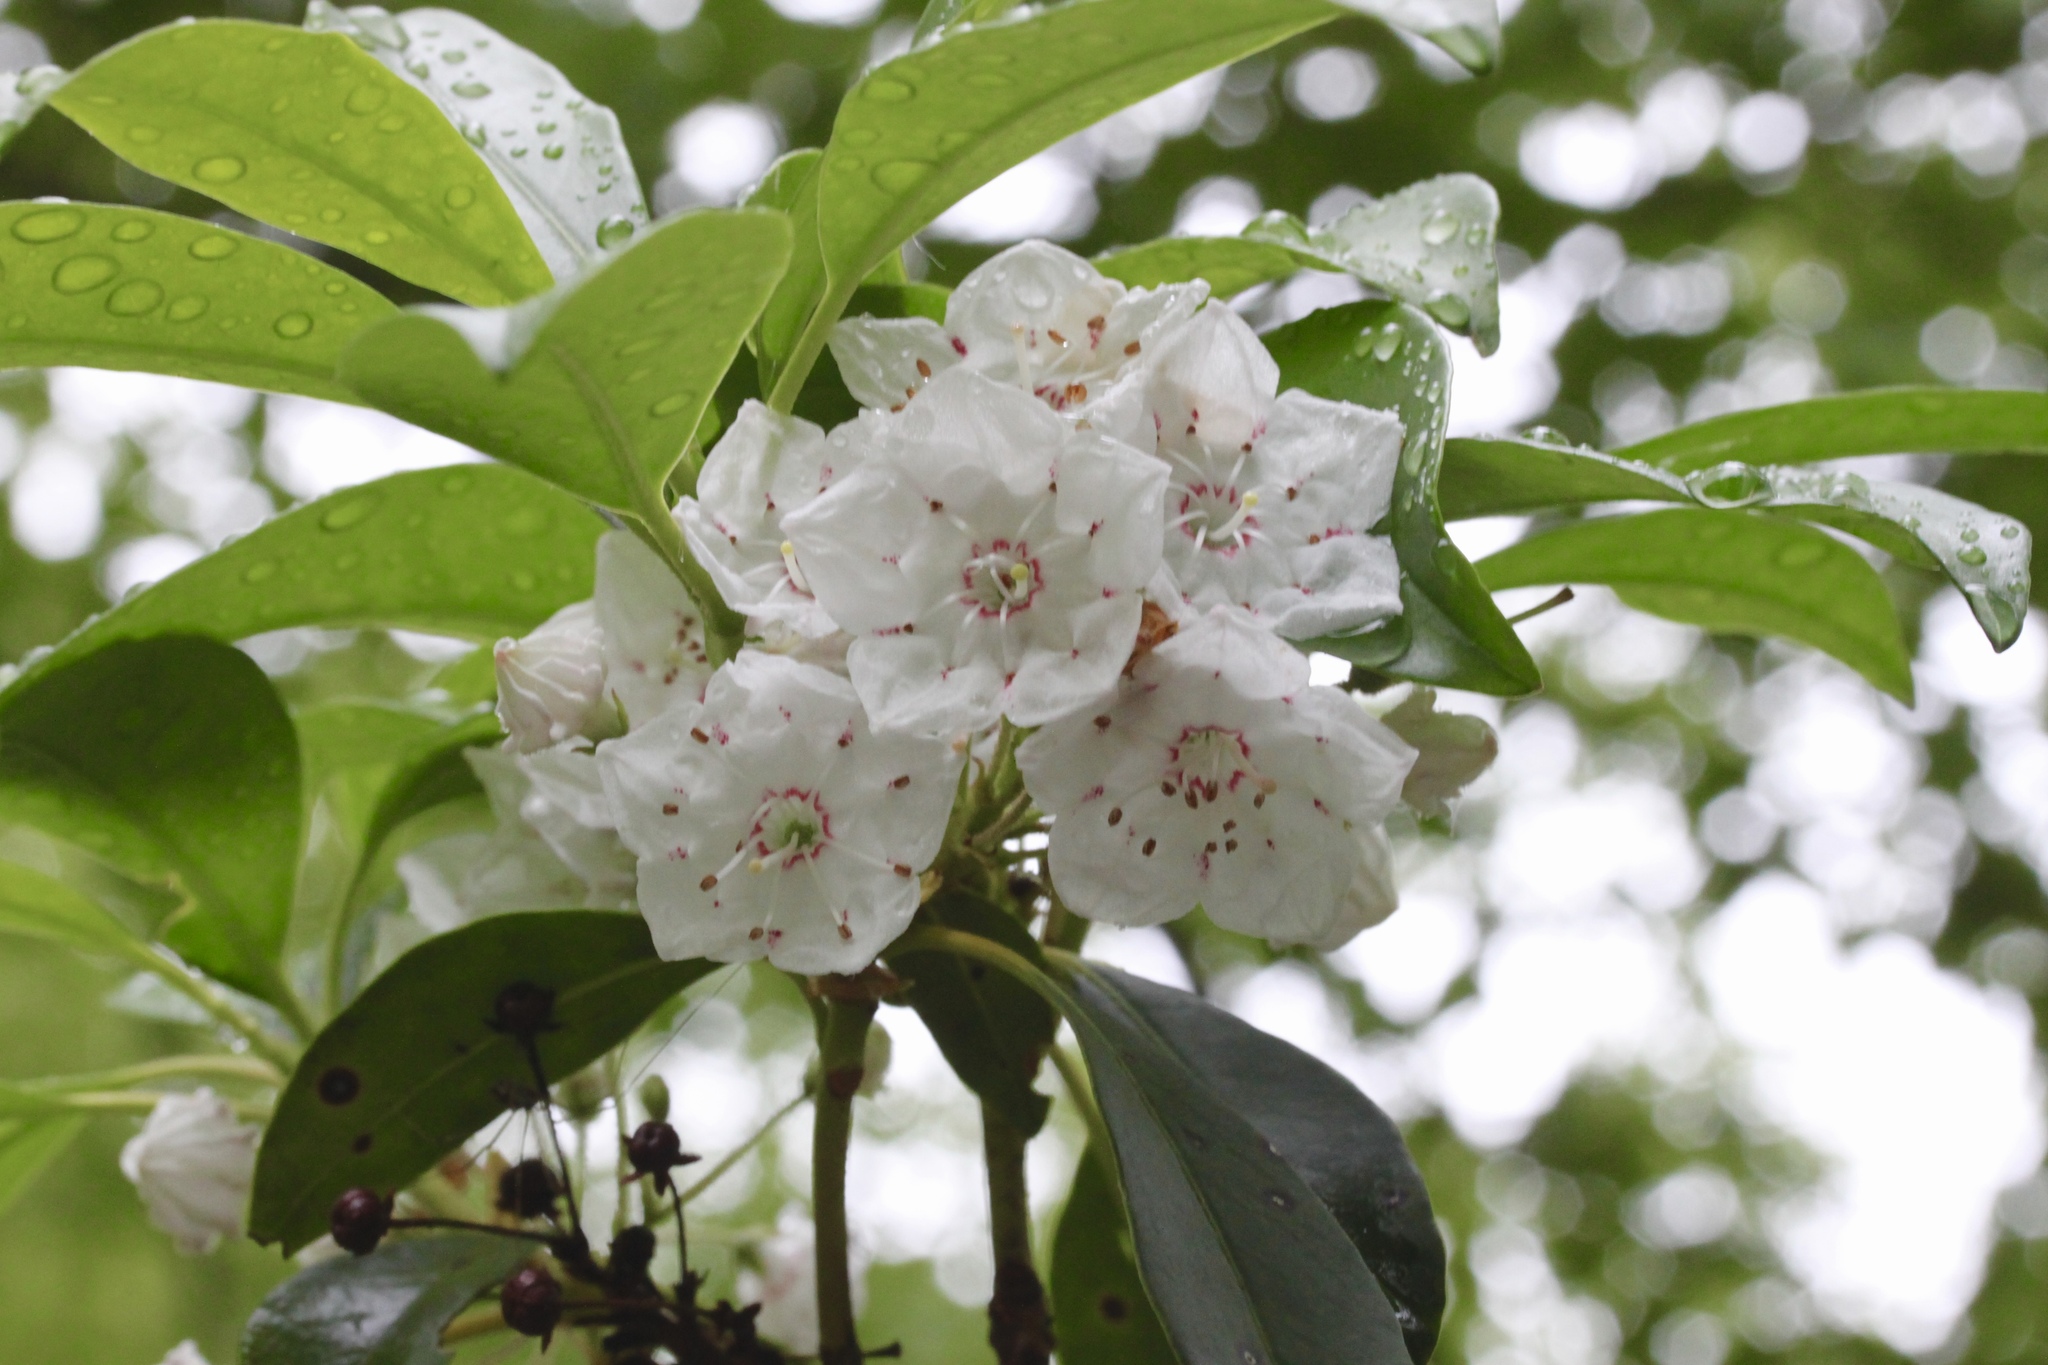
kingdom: Plantae
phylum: Tracheophyta
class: Magnoliopsida
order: Ericales
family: Ericaceae
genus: Kalmia
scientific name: Kalmia latifolia
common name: Mountain-laurel
